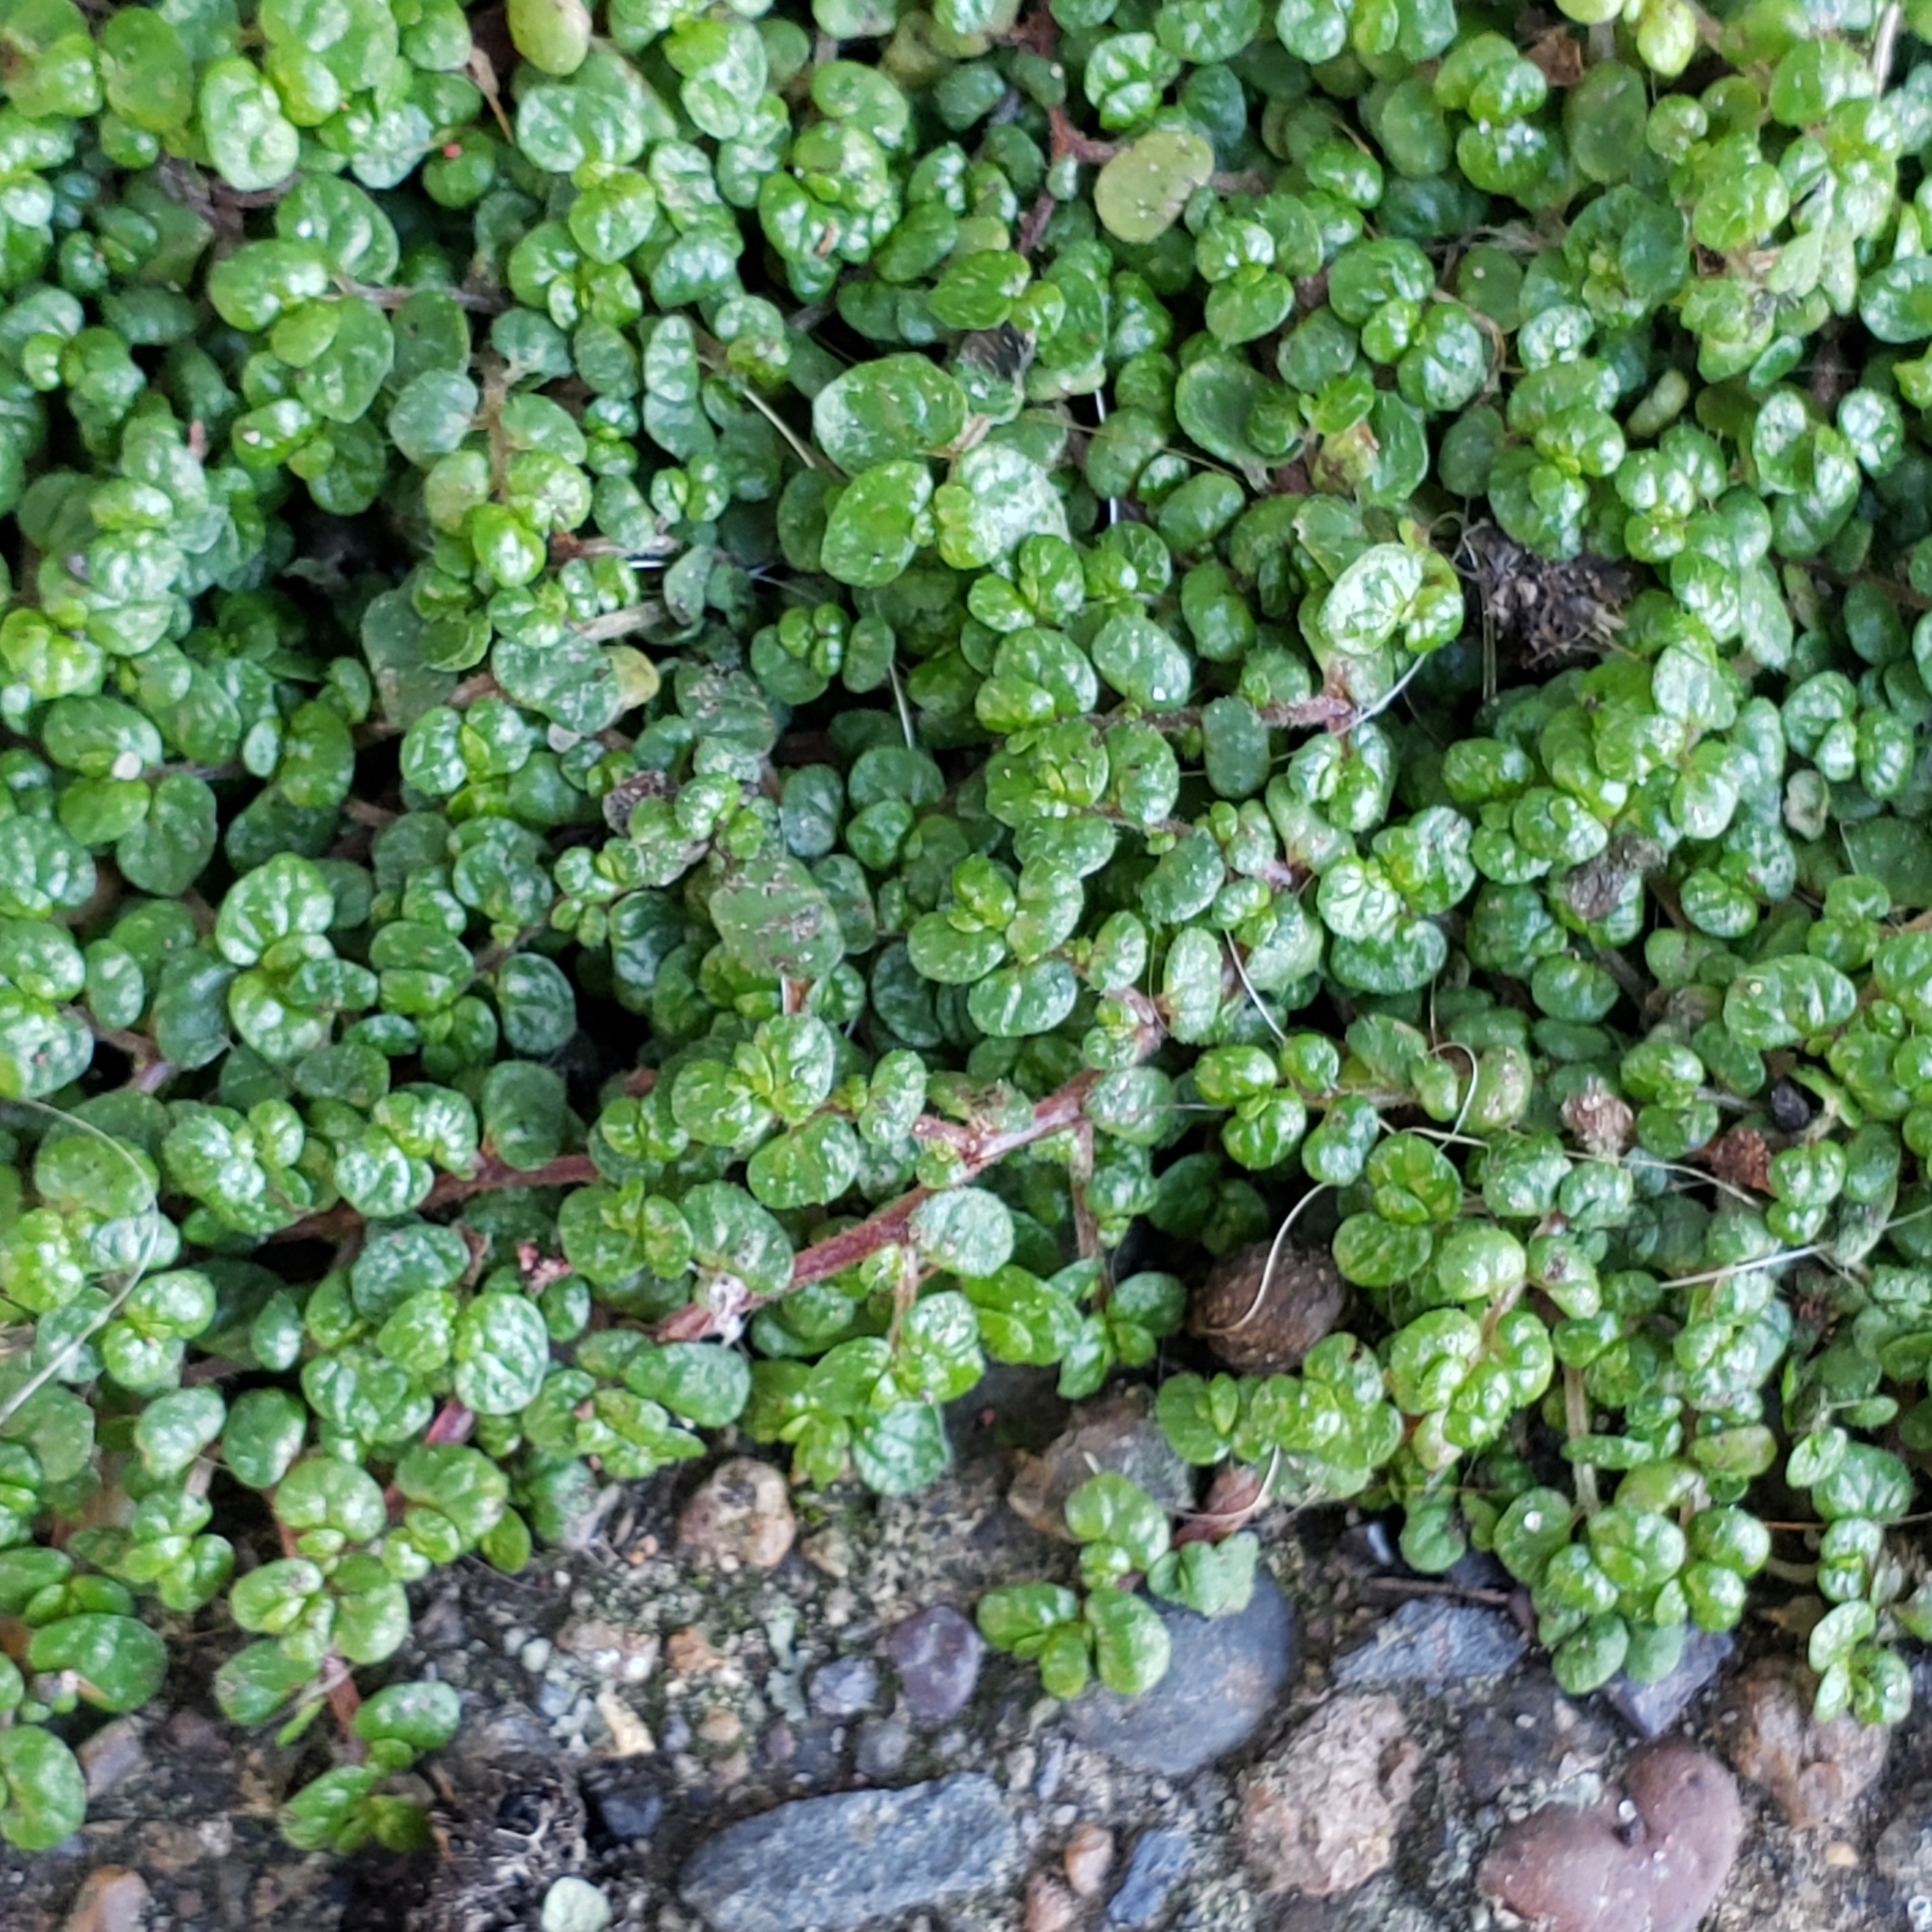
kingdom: Plantae
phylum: Tracheophyta
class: Magnoliopsida
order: Rosales
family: Urticaceae
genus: Soleirolia
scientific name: Soleirolia soleirolii
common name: Mind-your-own-business
